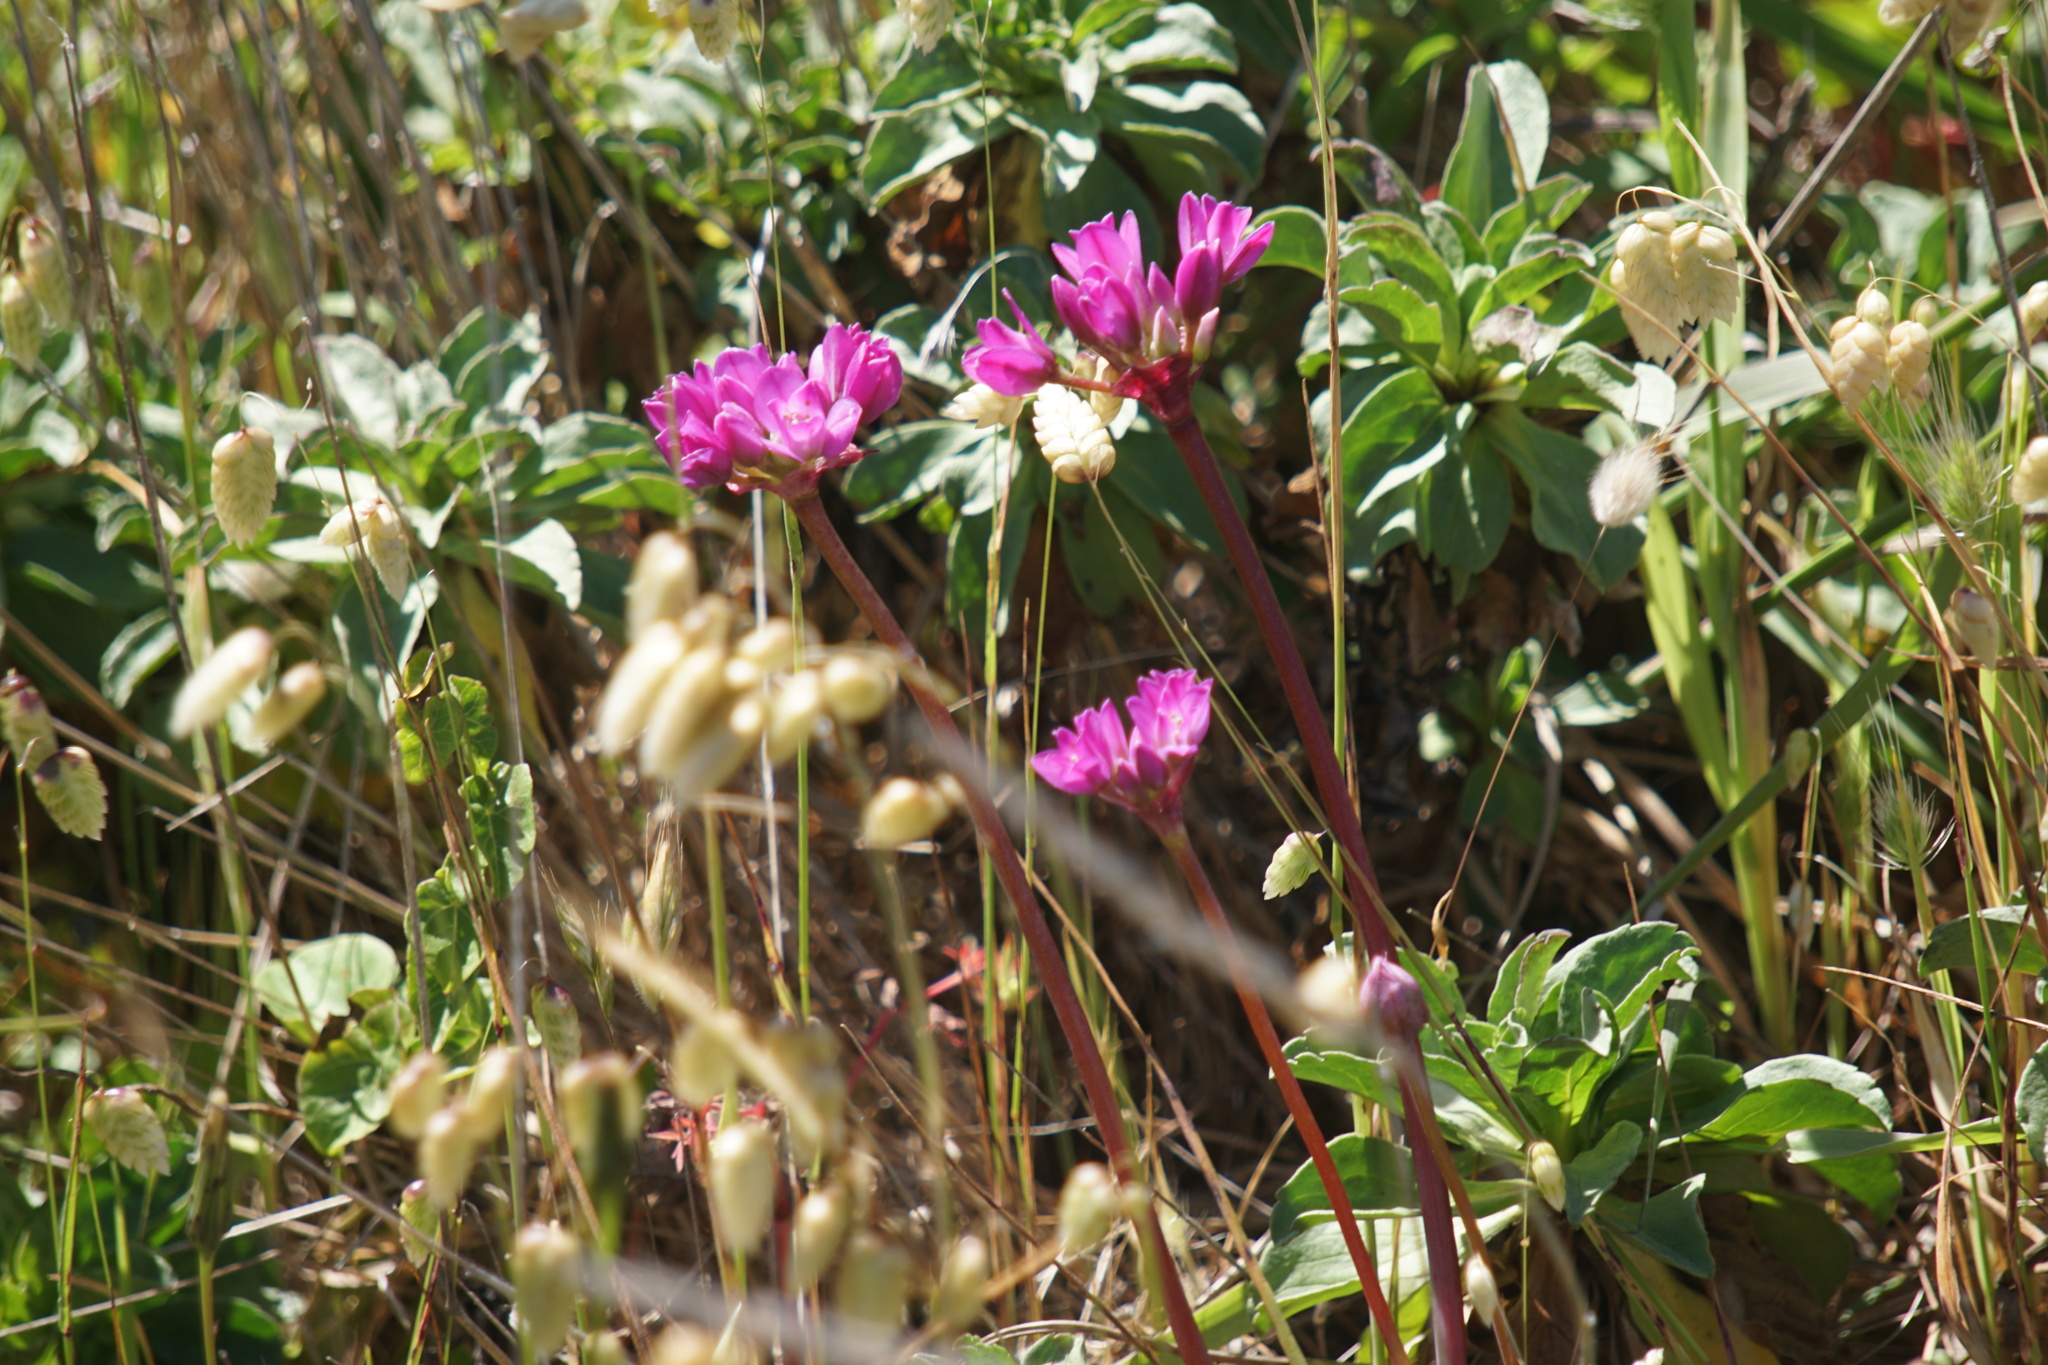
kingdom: Plantae
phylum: Tracheophyta
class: Liliopsida
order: Asparagales
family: Amaryllidaceae
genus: Allium
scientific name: Allium dichlamydeum
